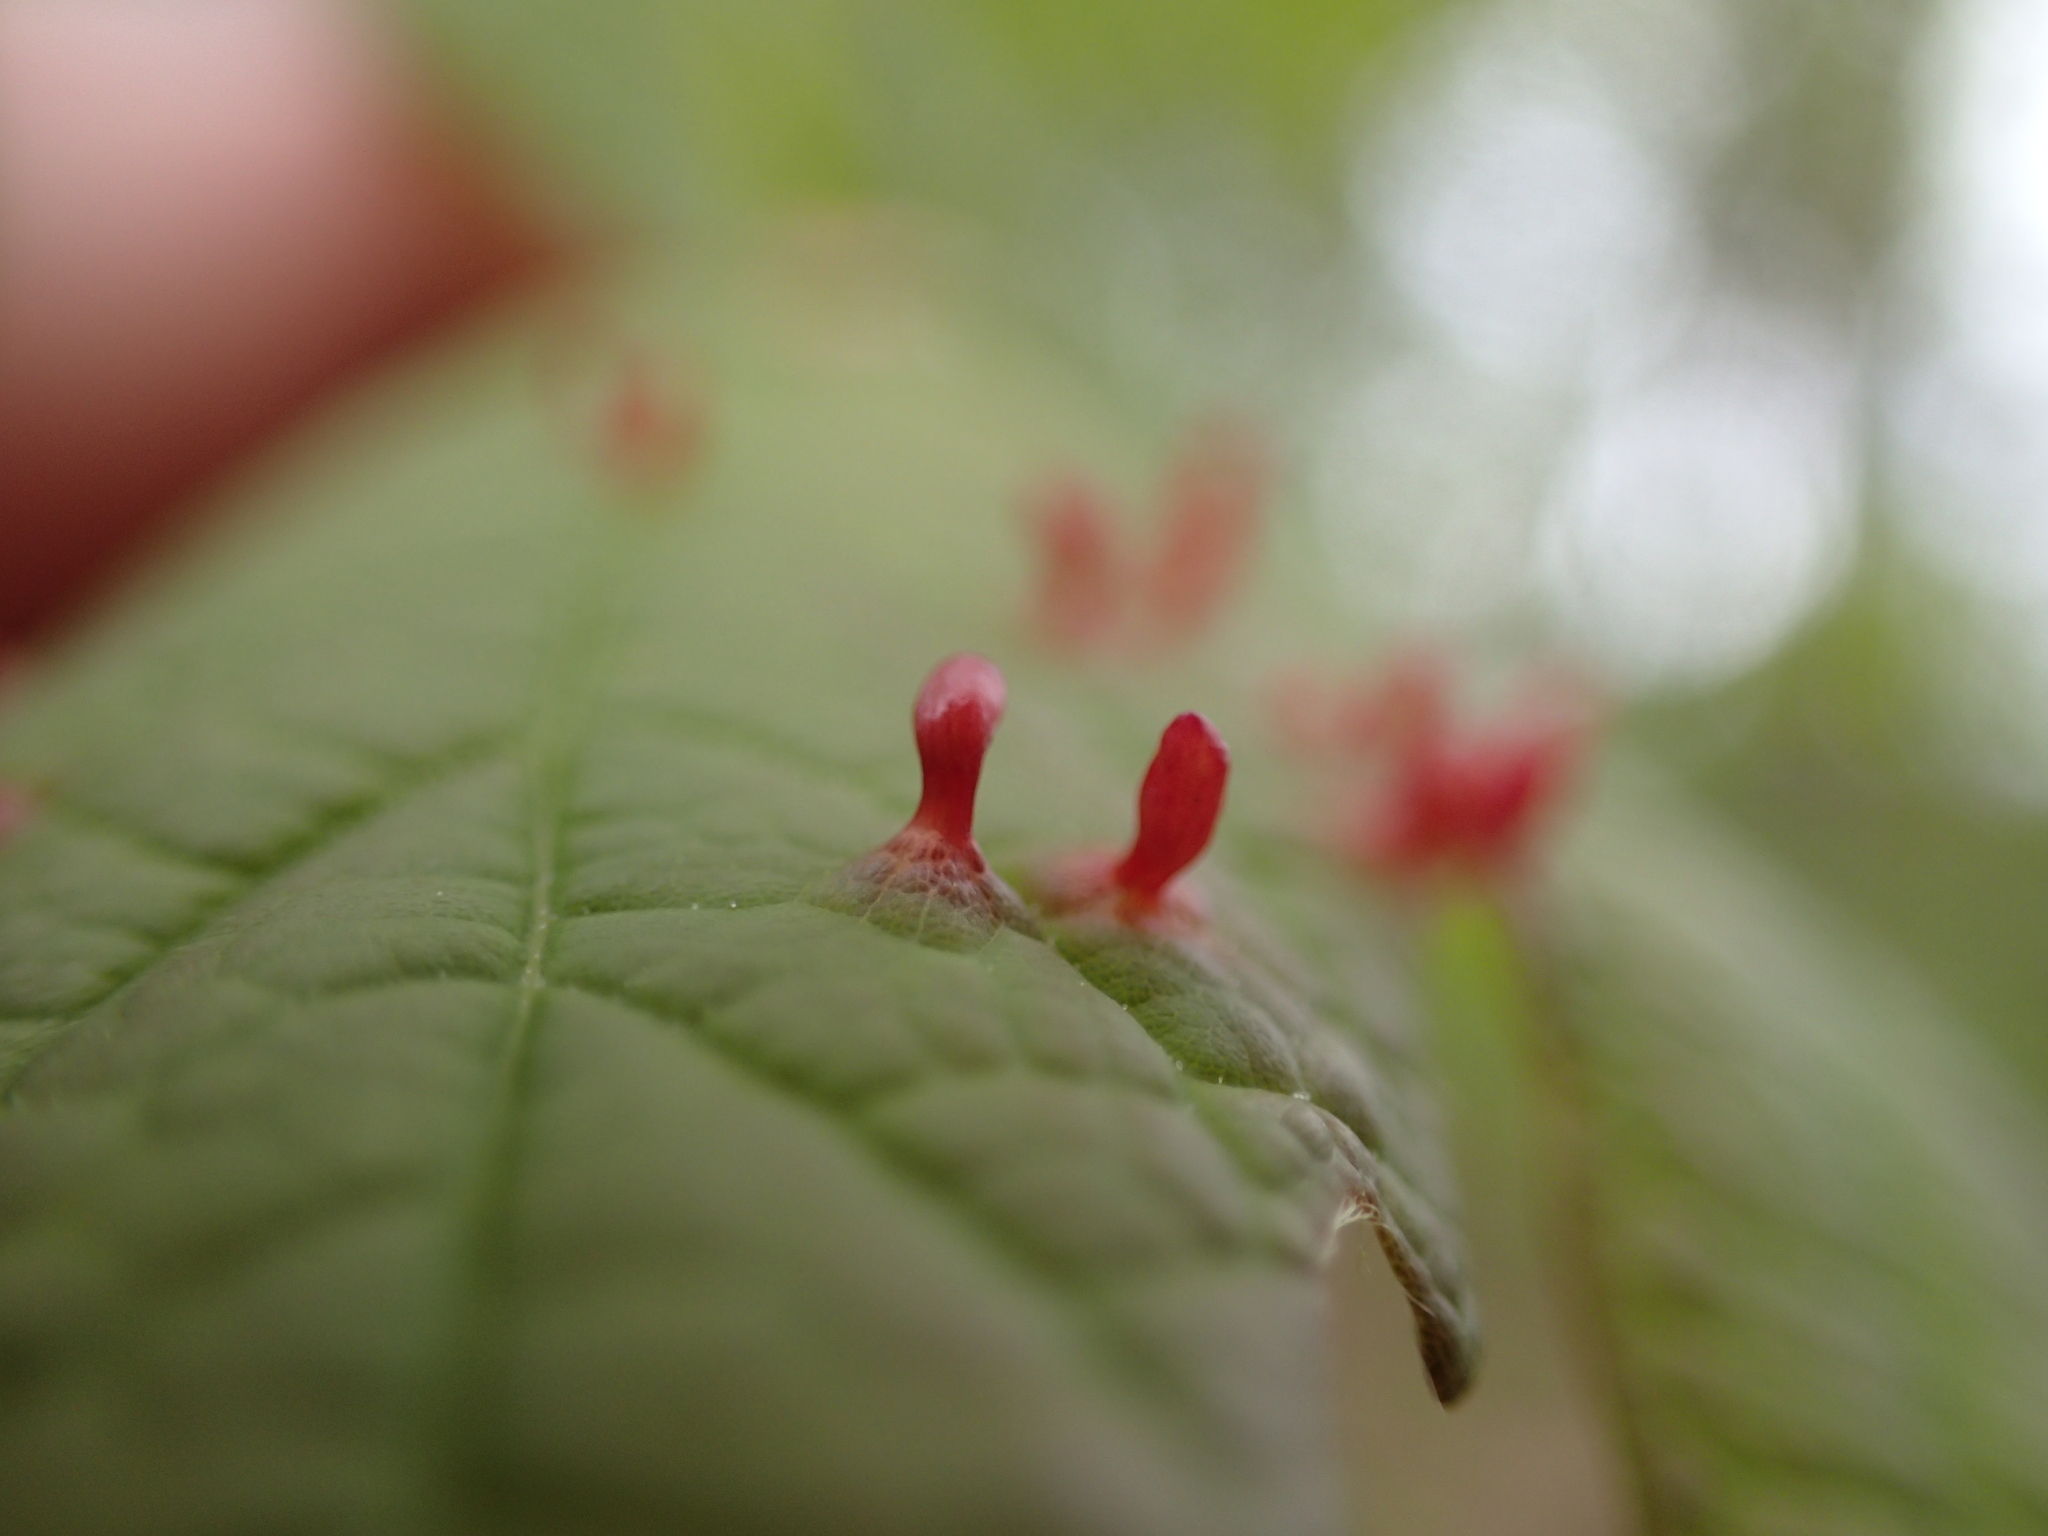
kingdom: Animalia
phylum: Arthropoda
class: Arachnida
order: Trombidiformes
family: Eriophyidae
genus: Vasates
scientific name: Vasates aceriscrumena
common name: Maple spindle gall mite
